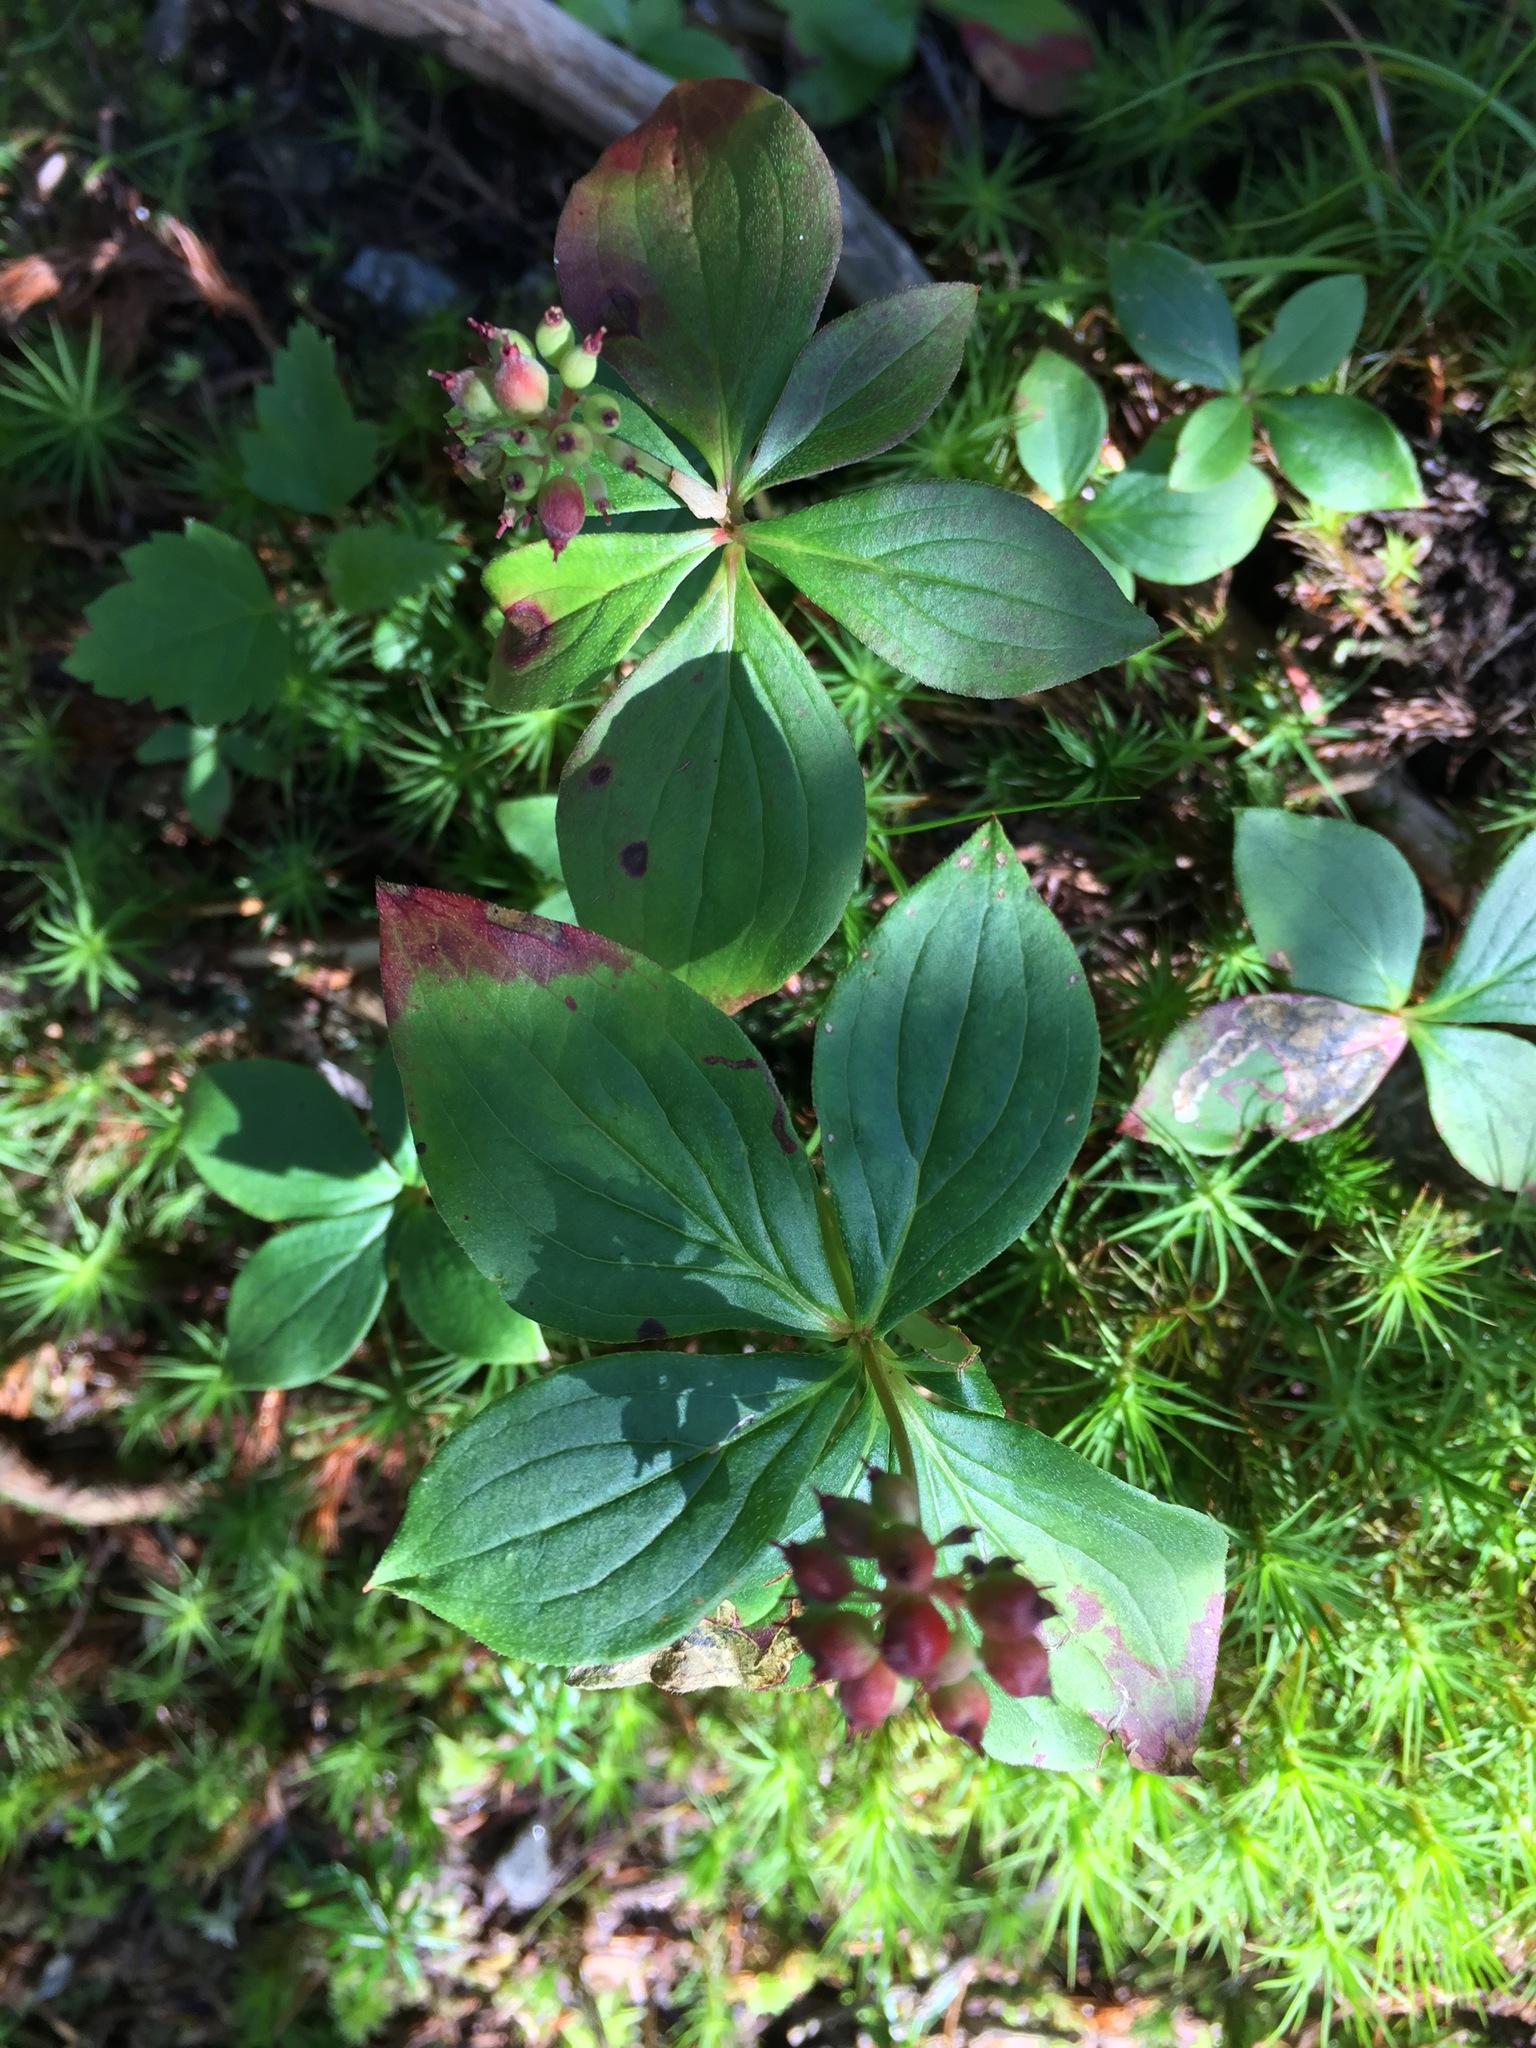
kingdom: Plantae
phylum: Tracheophyta
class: Magnoliopsida
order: Cornales
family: Cornaceae
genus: Cornus
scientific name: Cornus canadensis
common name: Creeping dogwood
